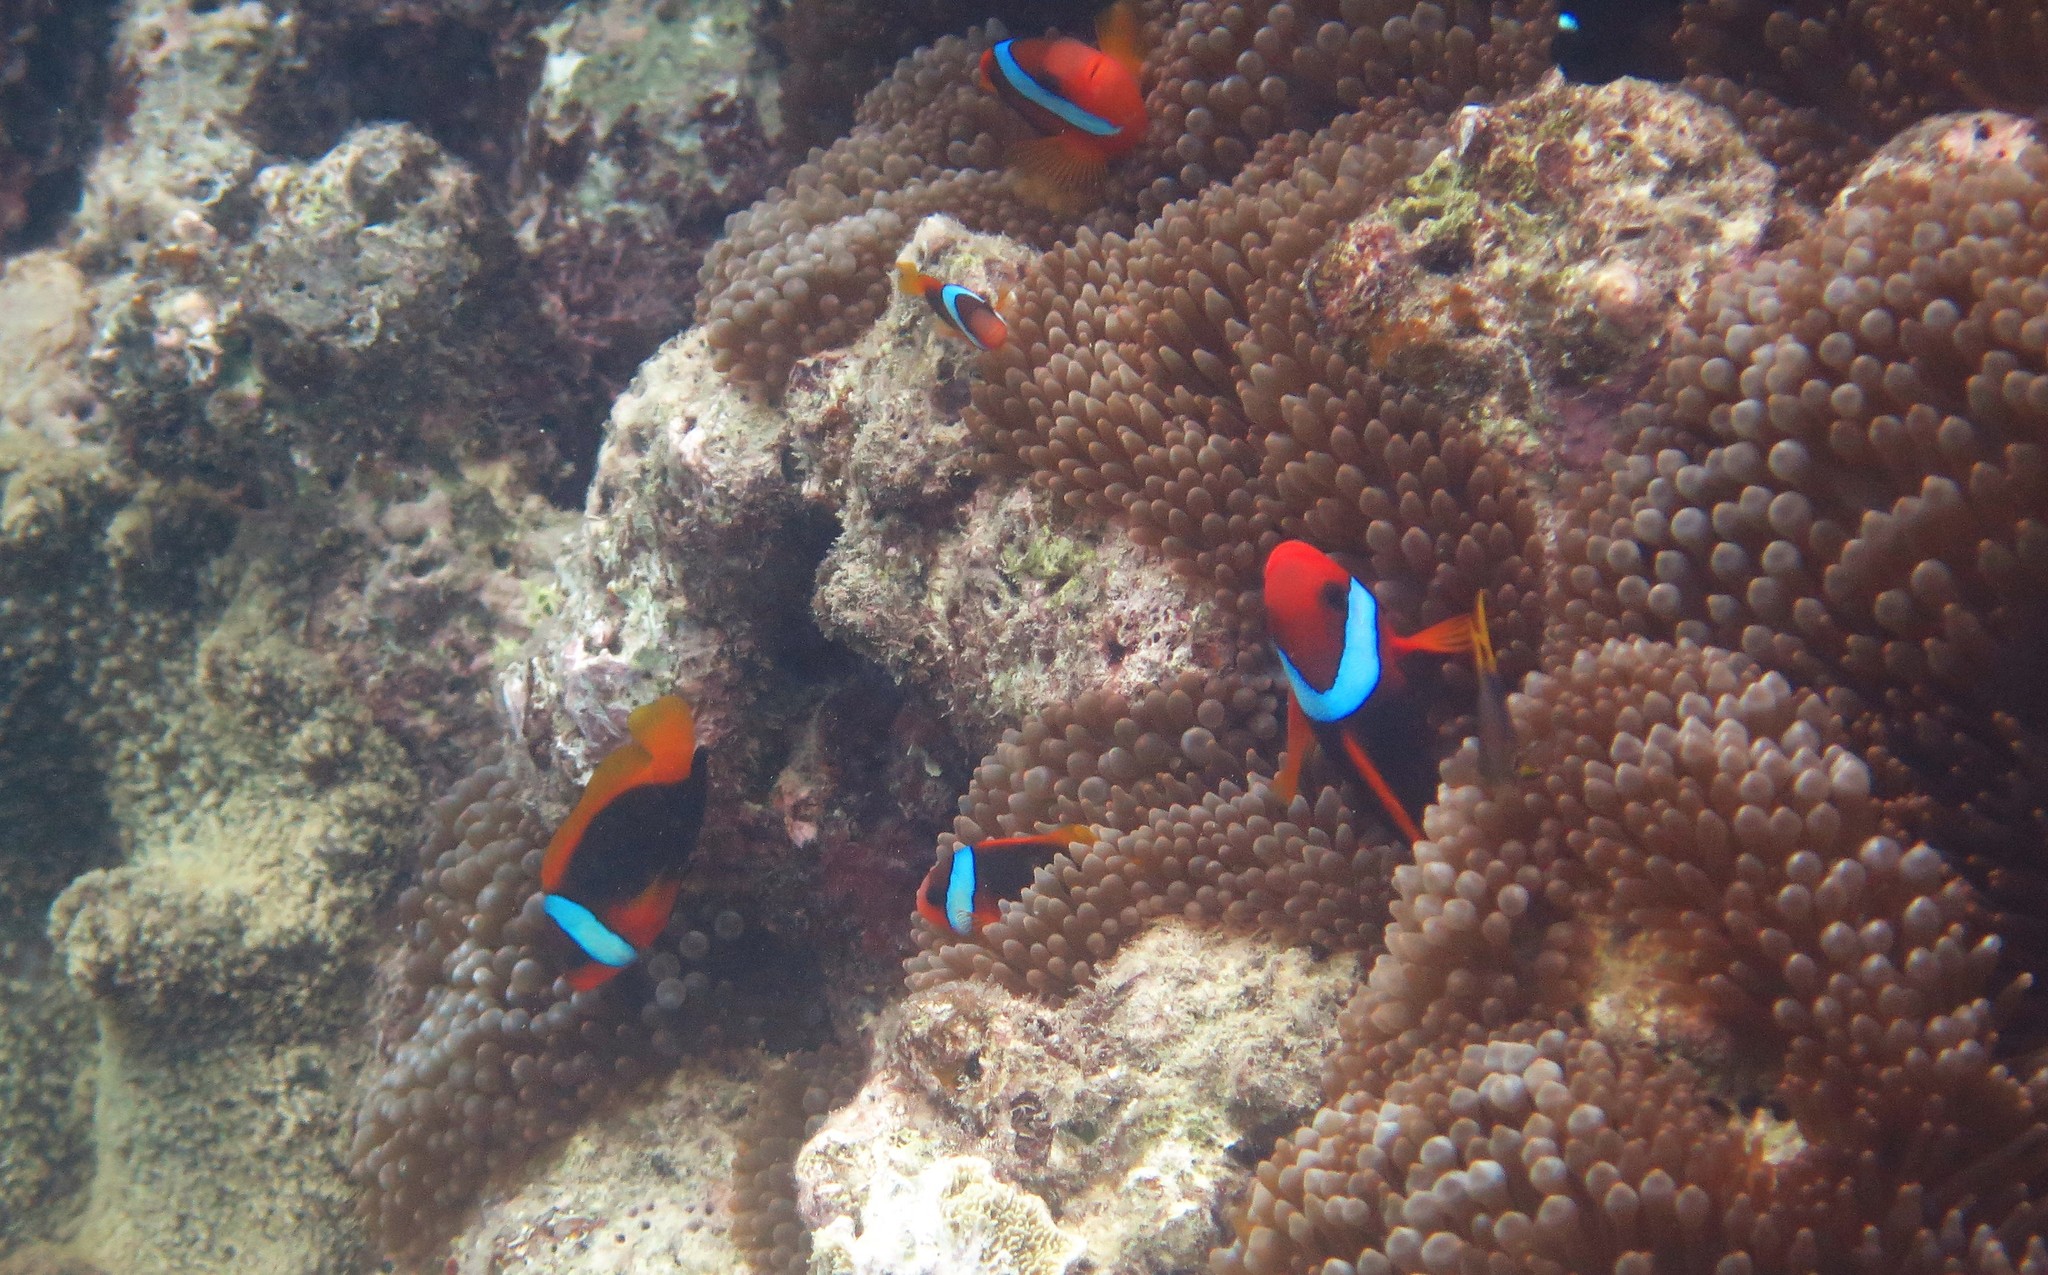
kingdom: Animalia
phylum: Chordata
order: Perciformes
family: Pomacentridae
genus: Amphiprion
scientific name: Amphiprion melanopus
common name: Black anemonefish
